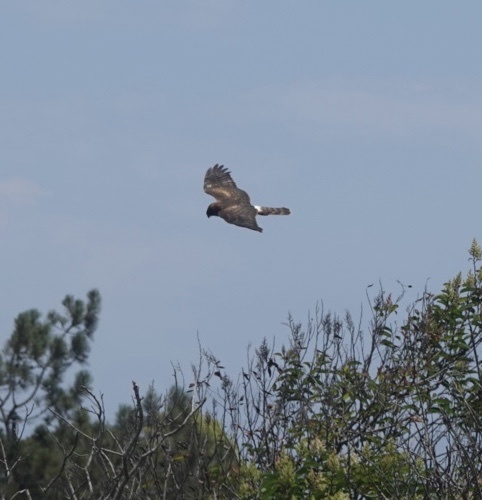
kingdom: Animalia
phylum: Chordata
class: Aves
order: Accipitriformes
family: Accipitridae
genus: Circus
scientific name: Circus cyaneus
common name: Hen harrier
